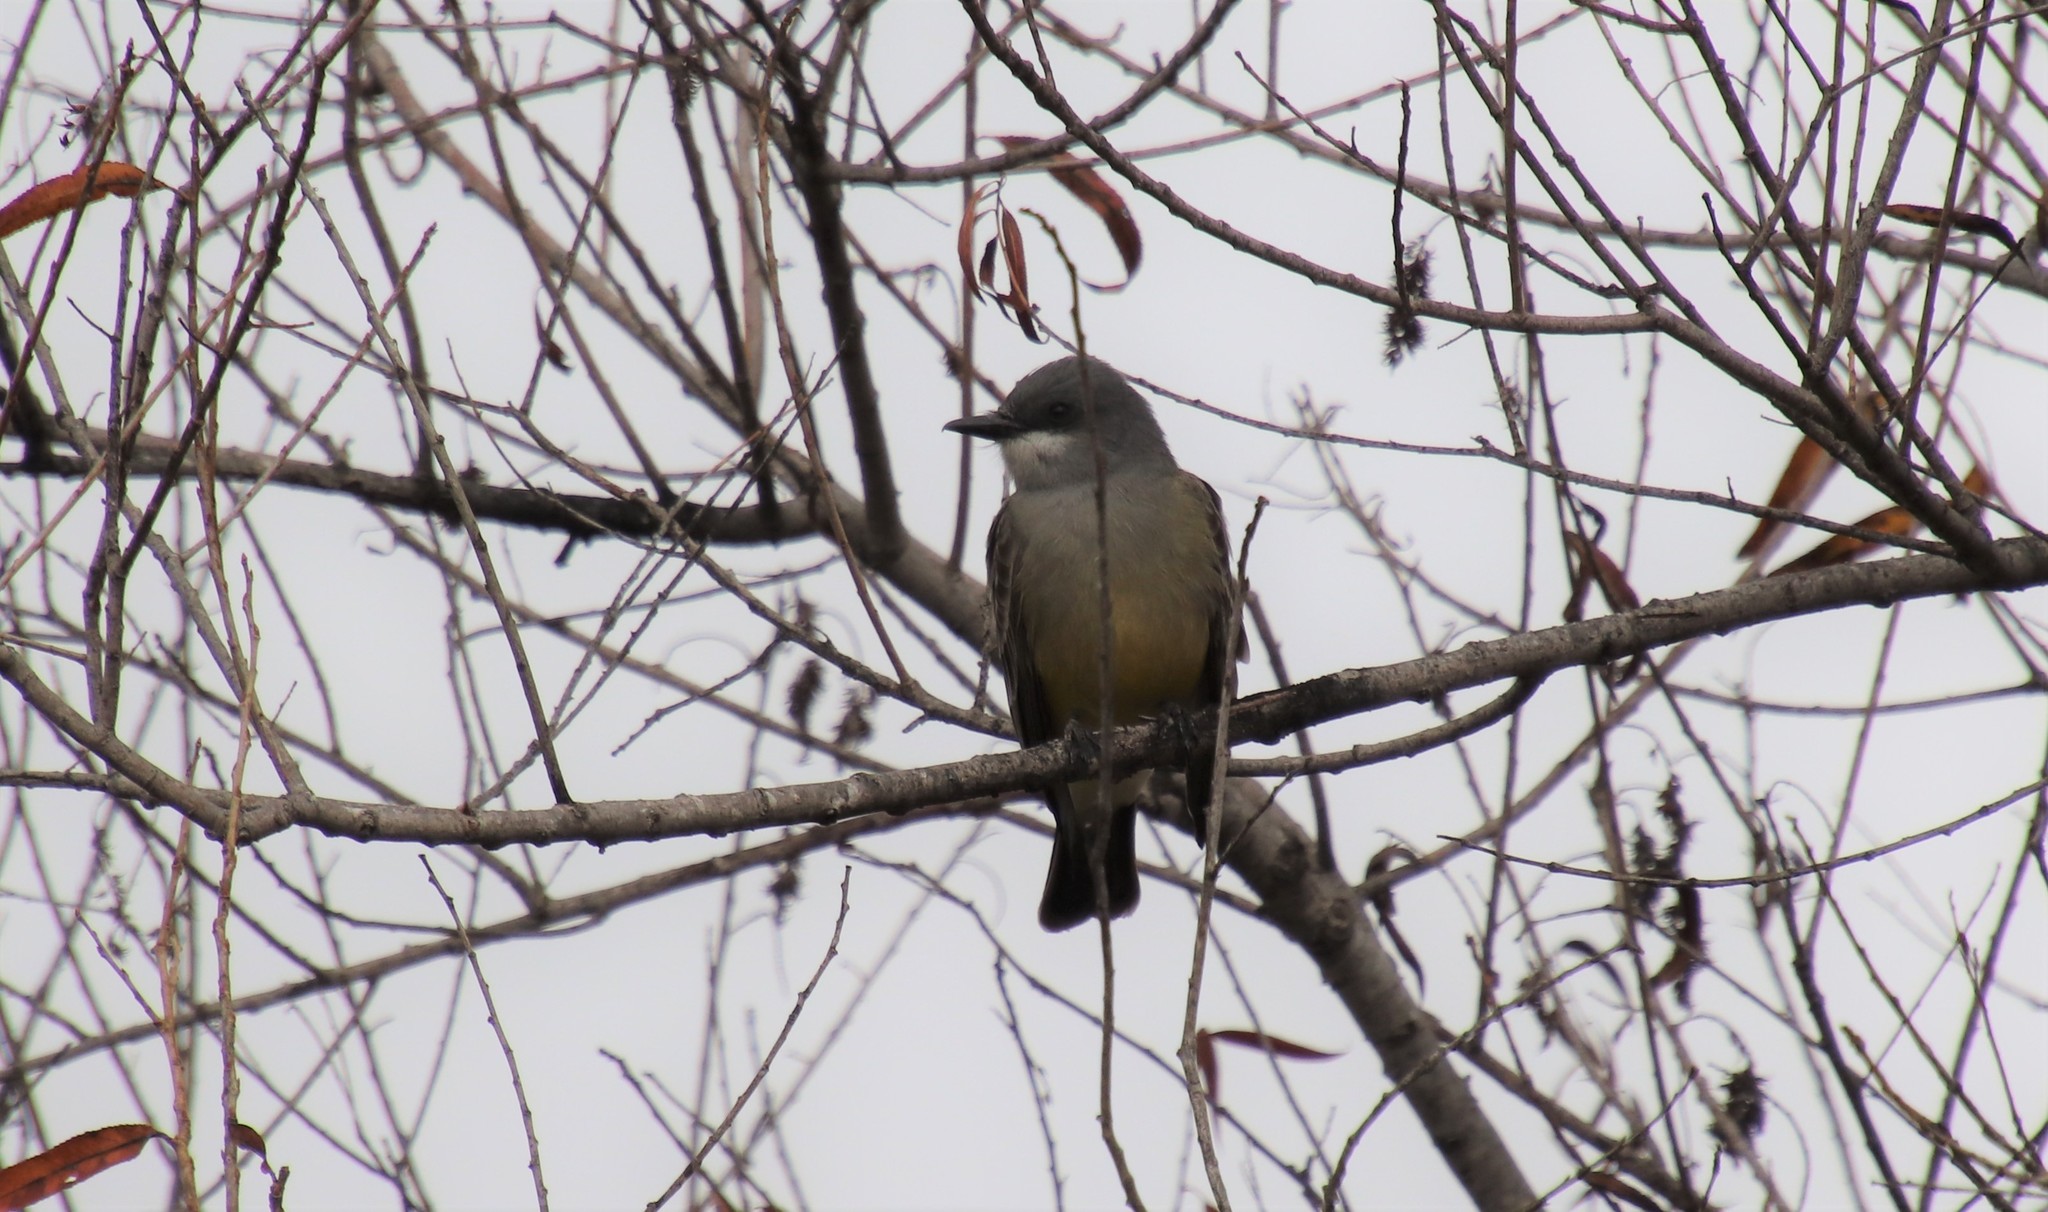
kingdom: Animalia
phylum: Chordata
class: Aves
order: Passeriformes
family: Tyrannidae
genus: Tyrannus
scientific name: Tyrannus vociferans
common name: Cassin's kingbird
